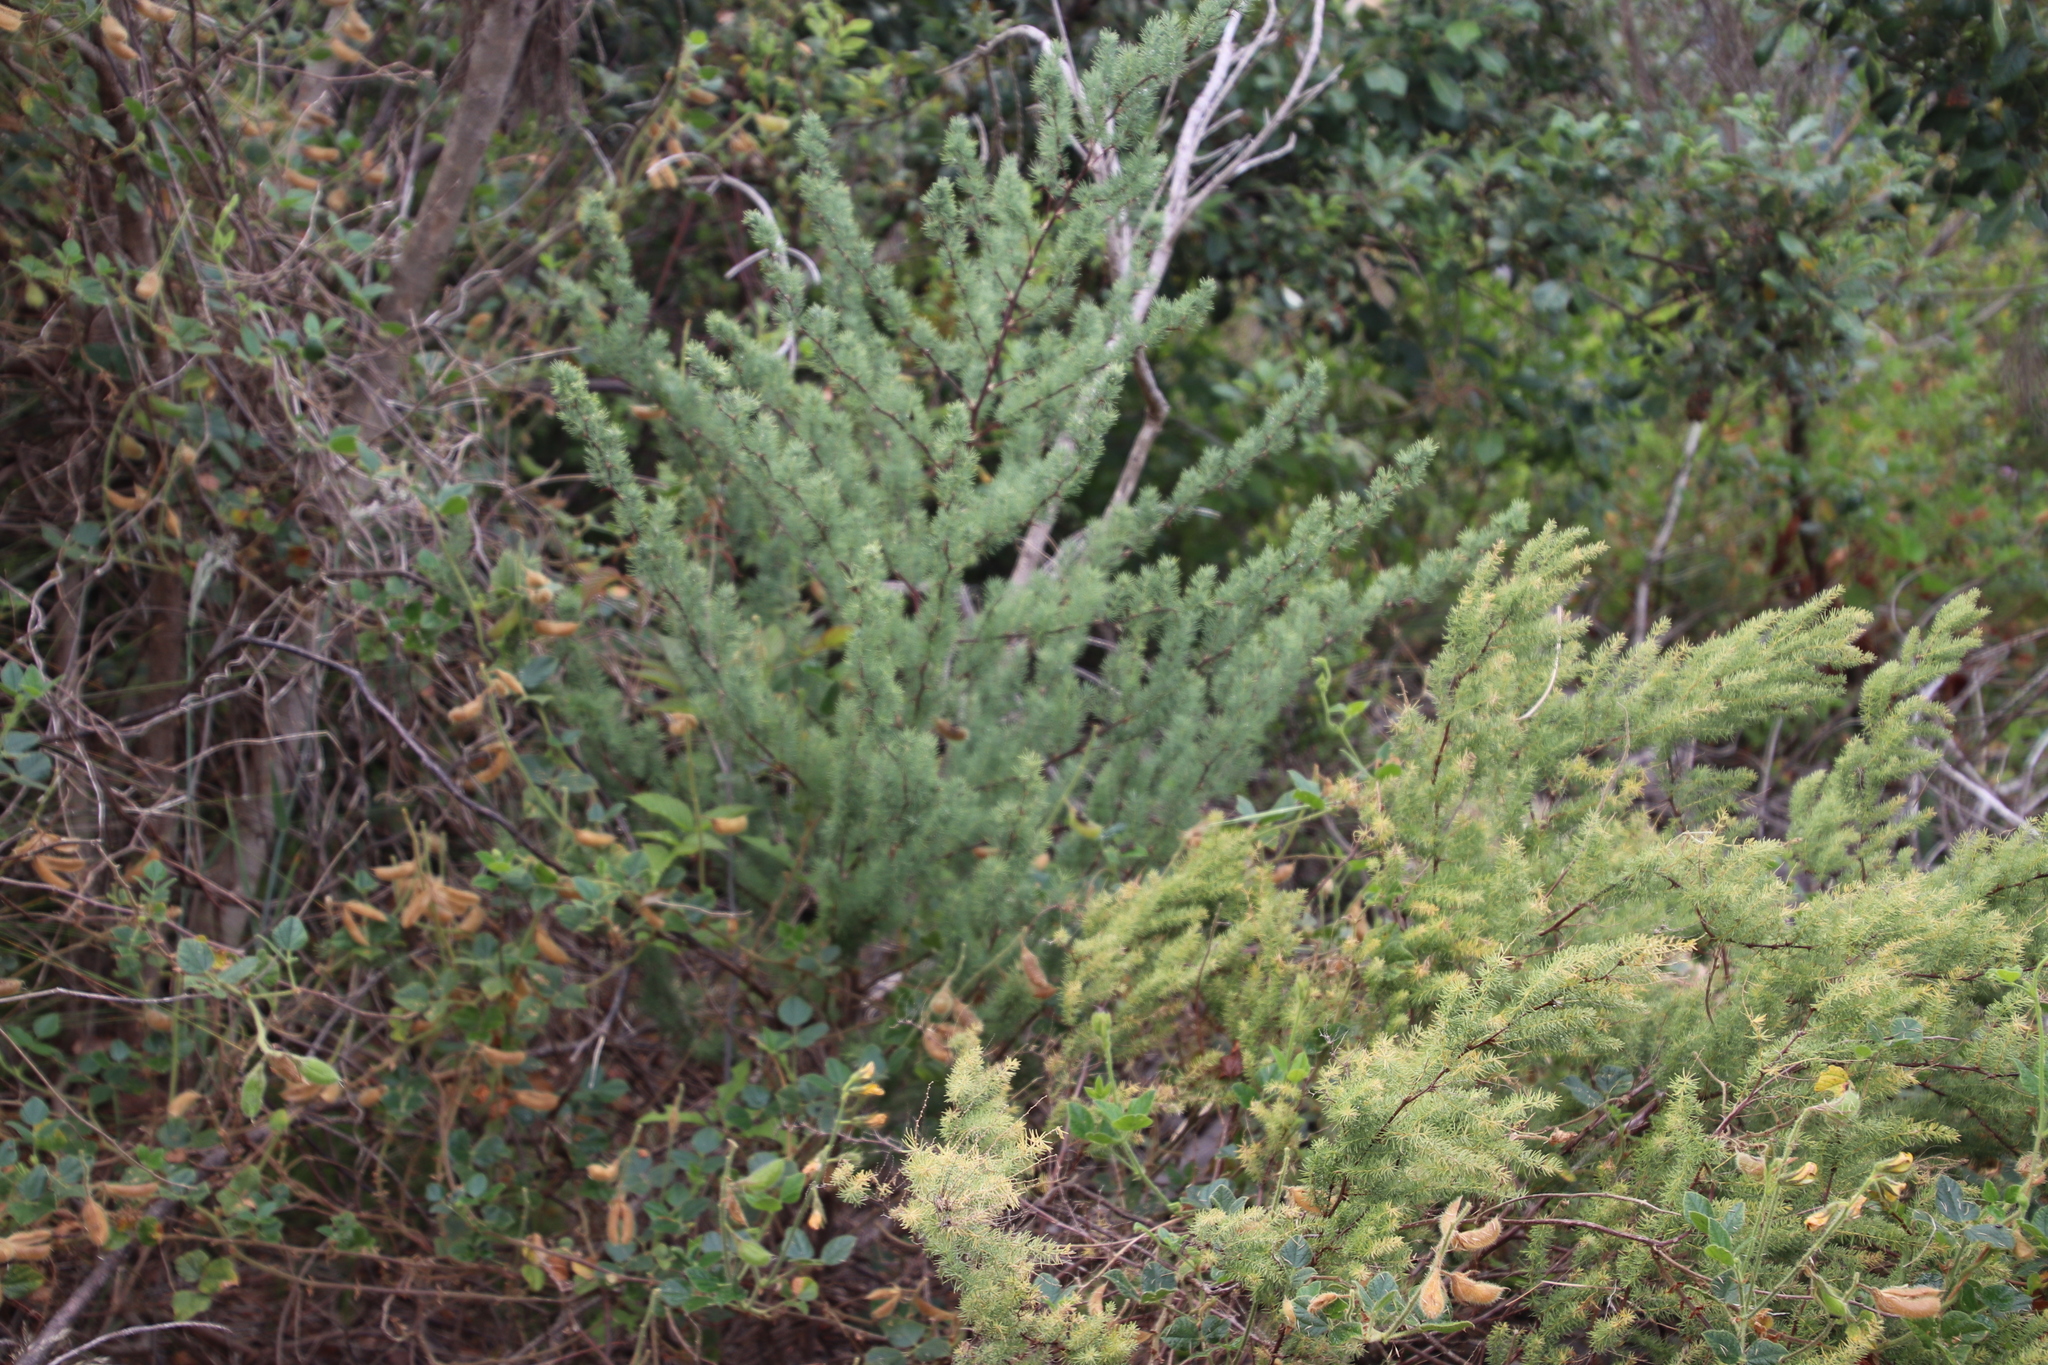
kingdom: Plantae
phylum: Tracheophyta
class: Liliopsida
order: Asparagales
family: Asparagaceae
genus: Asparagus
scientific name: Asparagus rubicundus
